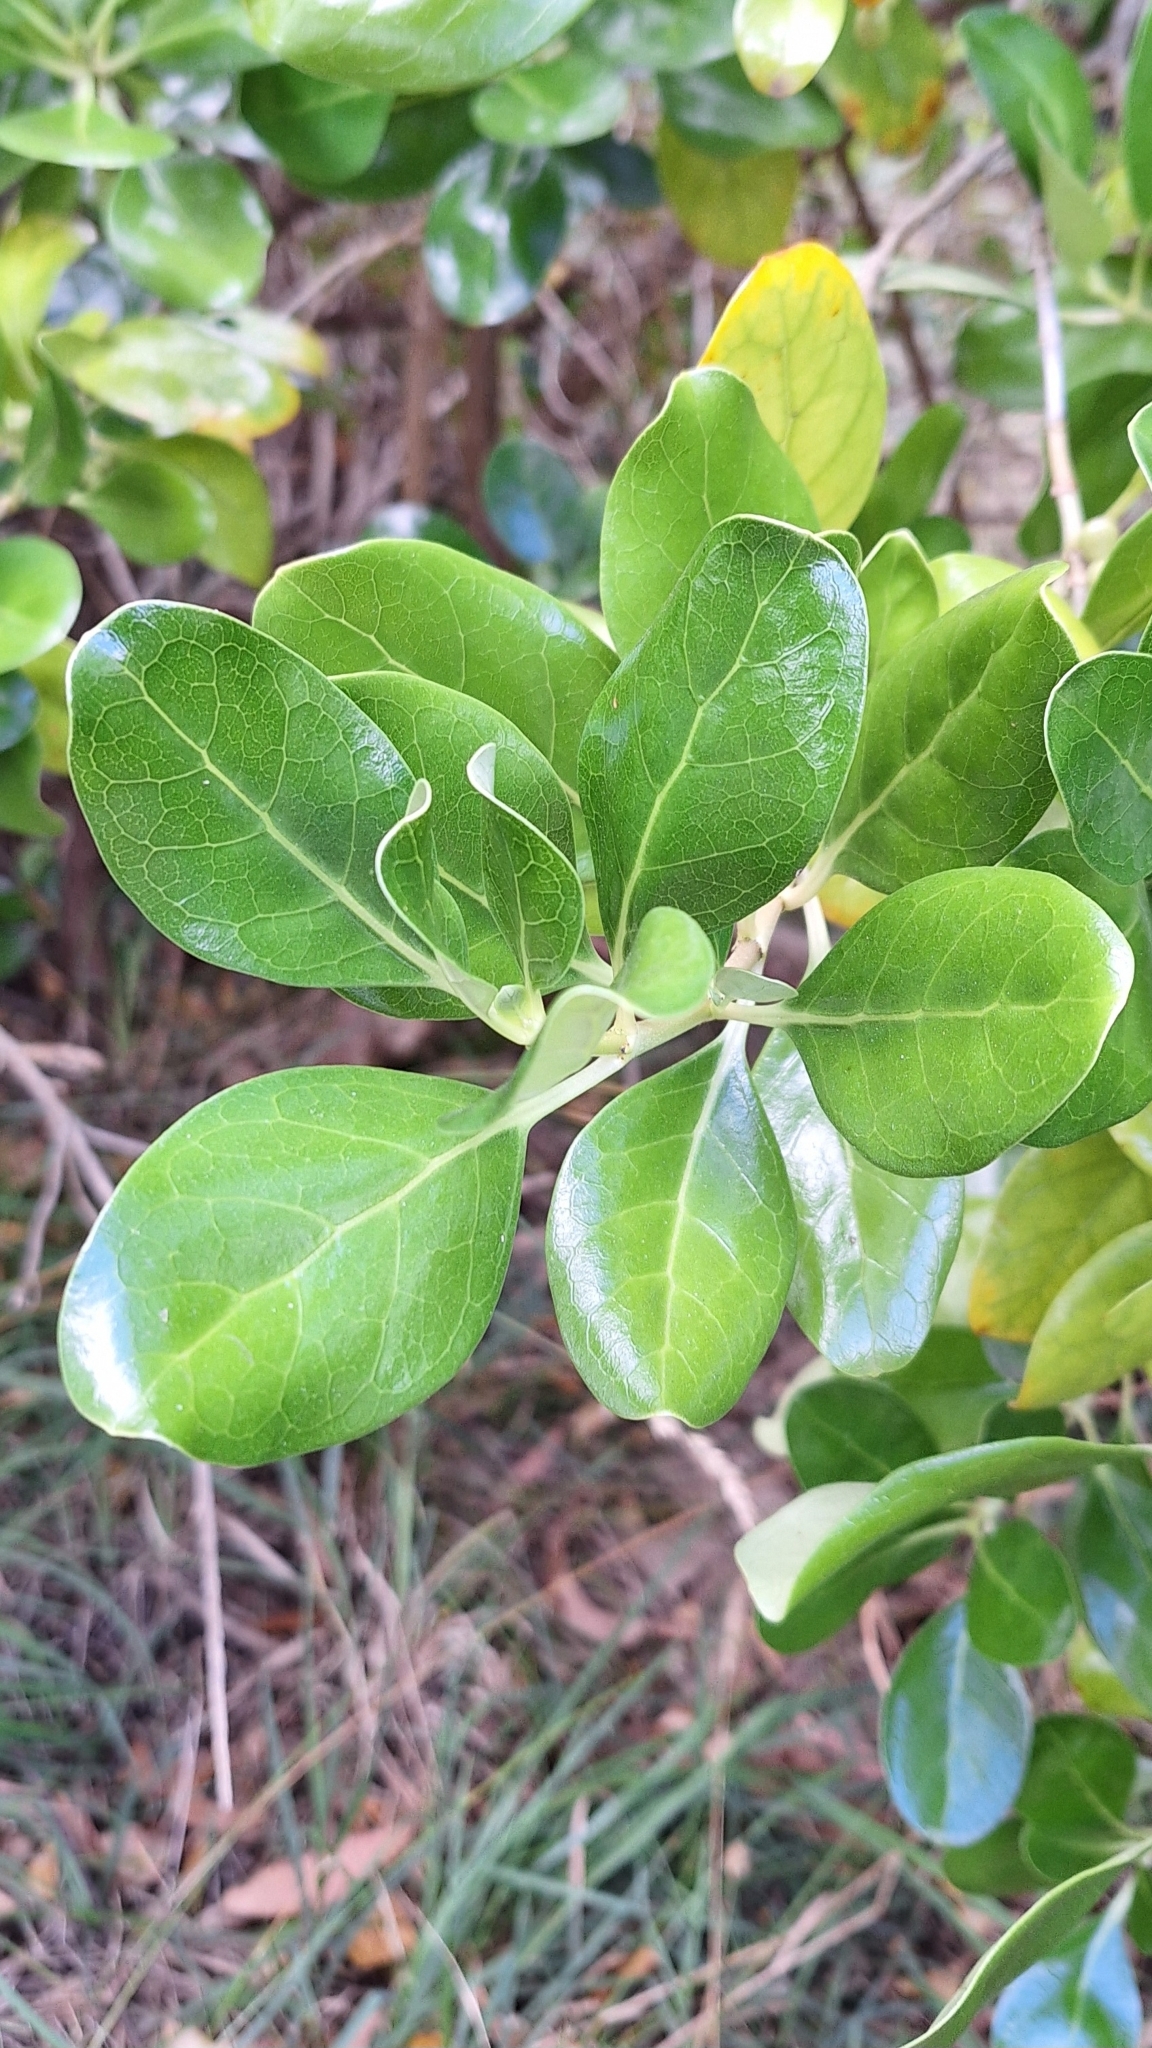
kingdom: Plantae
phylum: Tracheophyta
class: Magnoliopsida
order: Gentianales
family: Rubiaceae
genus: Coprosma
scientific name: Coprosma repens
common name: Tree bedstraw
